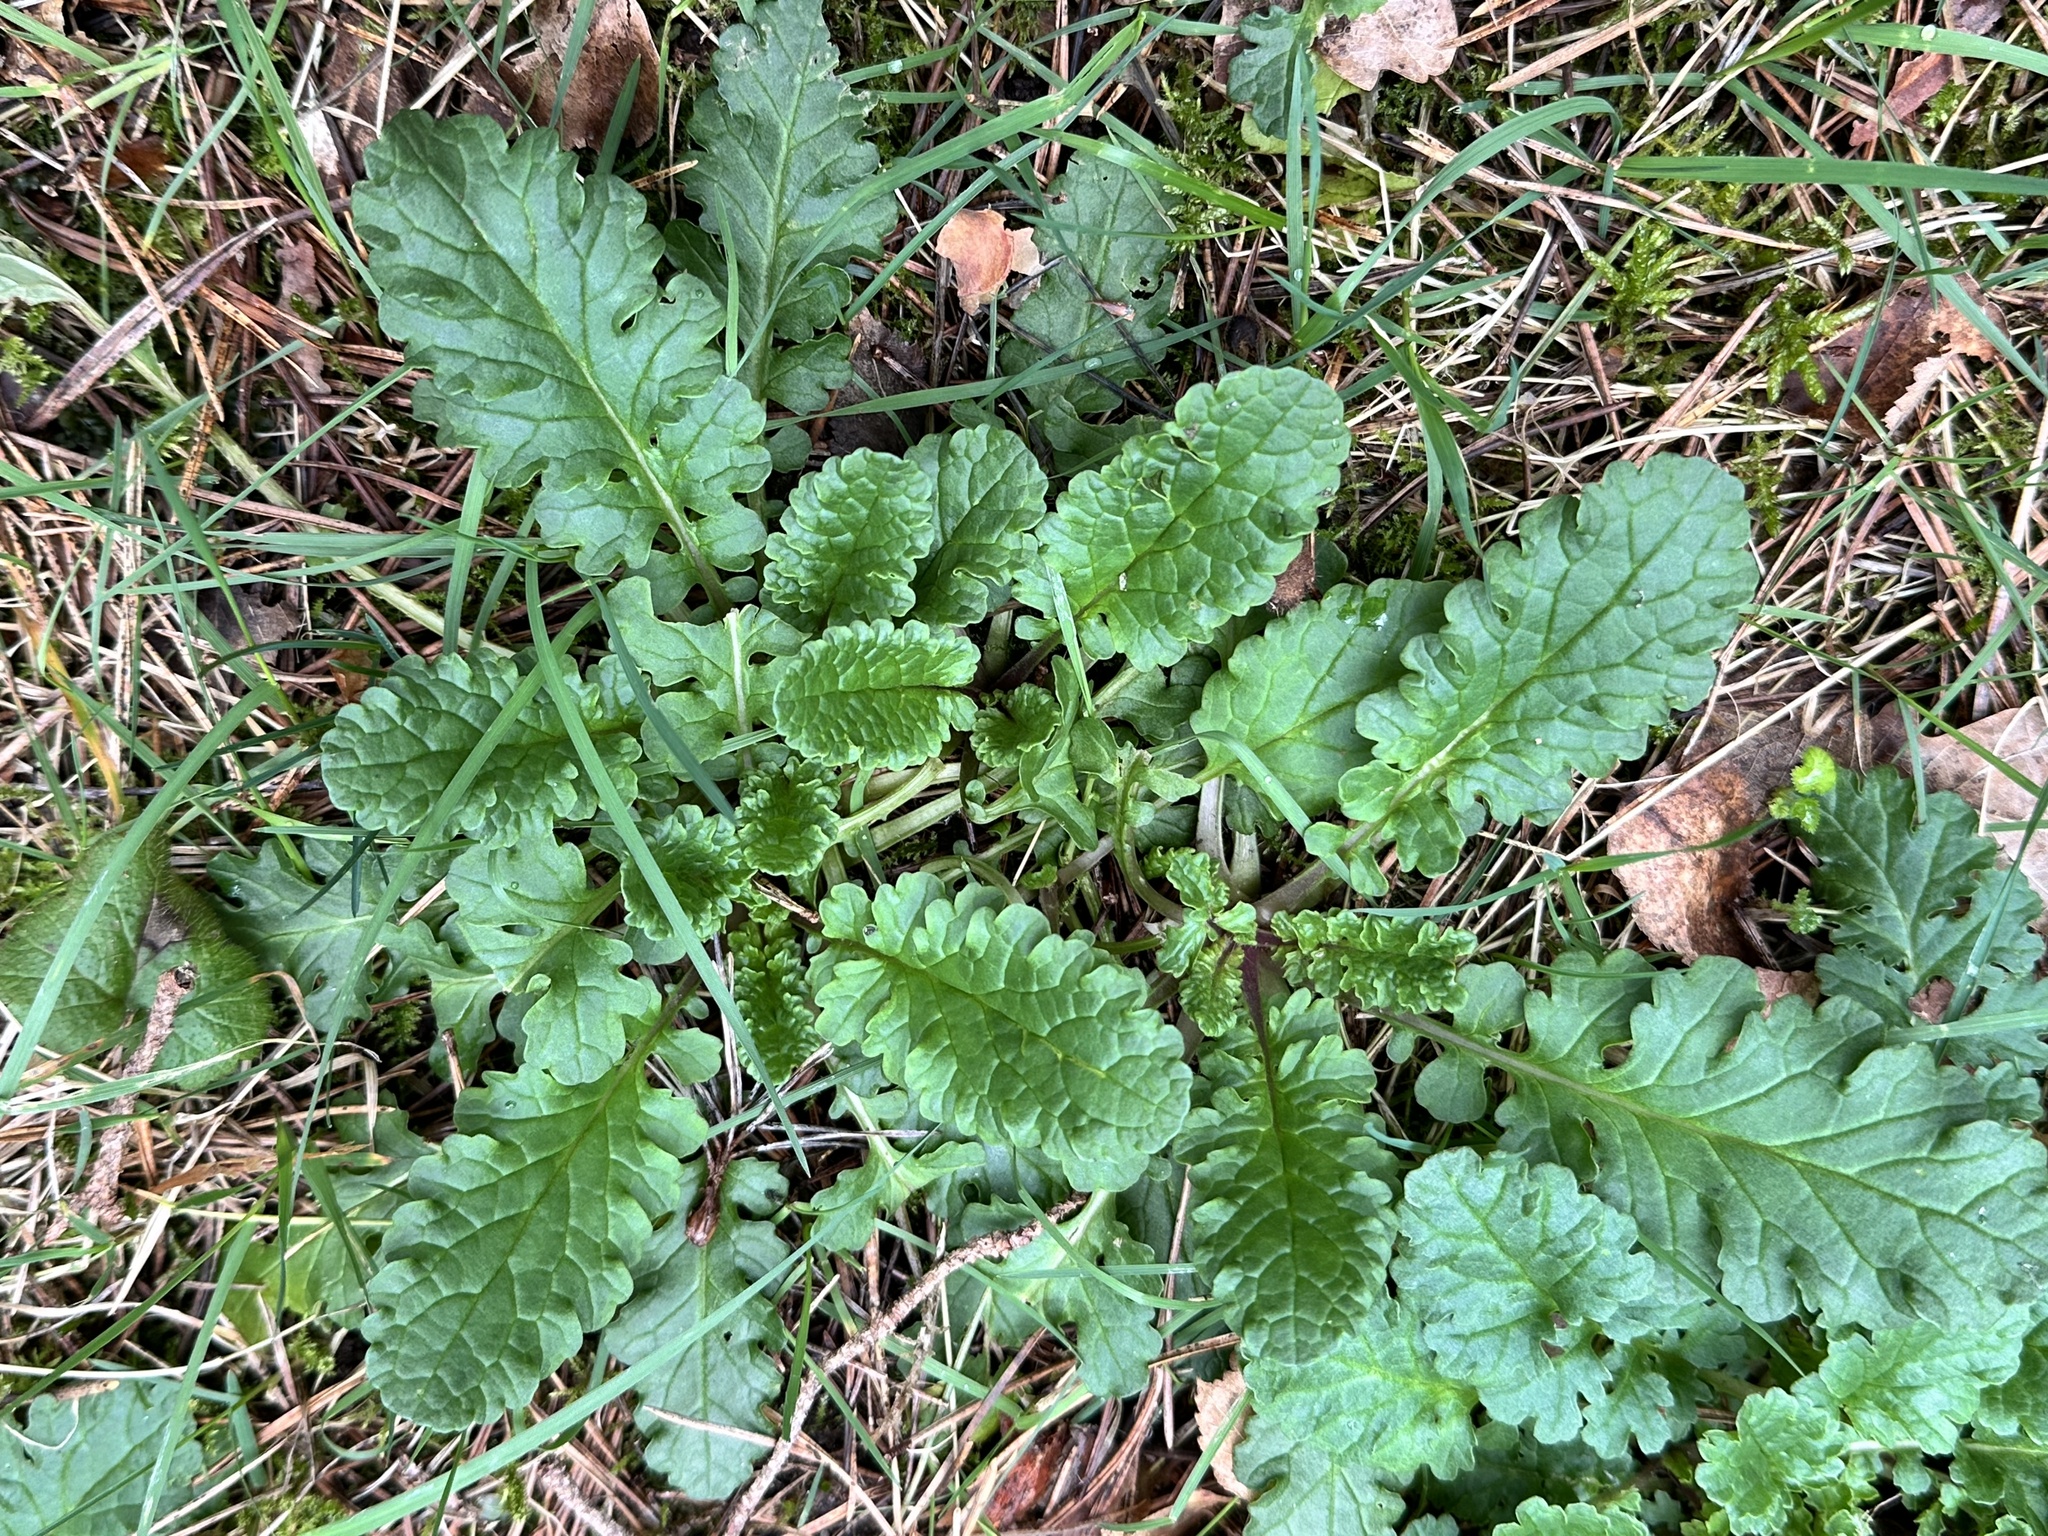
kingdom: Plantae
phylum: Tracheophyta
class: Magnoliopsida
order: Asterales
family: Asteraceae
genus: Jacobaea
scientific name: Jacobaea vulgaris
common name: Stinking willie
